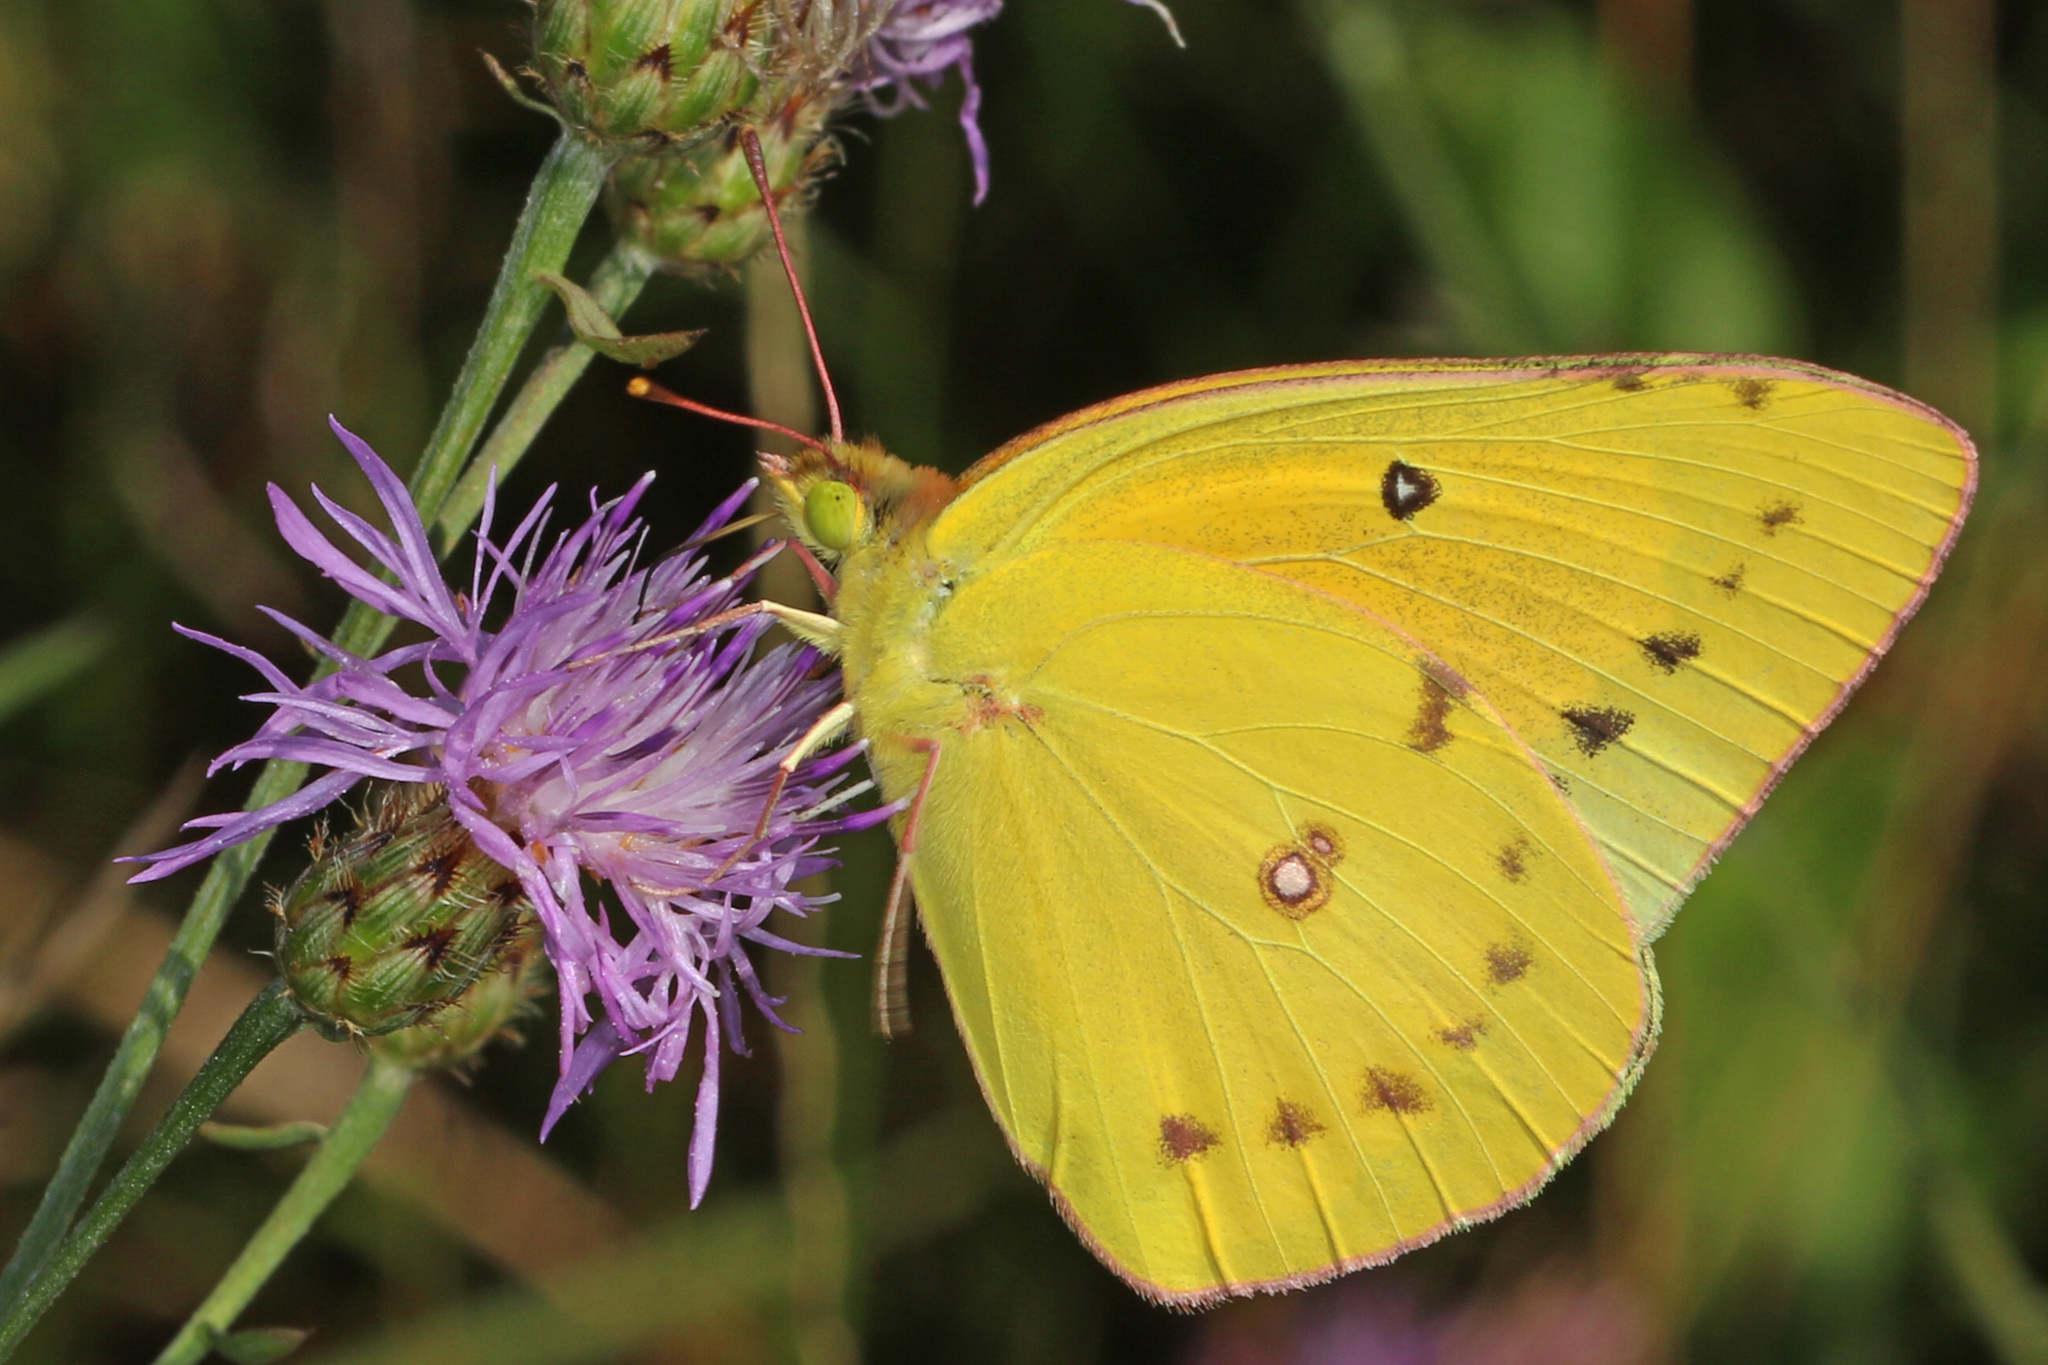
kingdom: Animalia
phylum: Arthropoda
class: Insecta
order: Lepidoptera
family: Pieridae
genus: Colias
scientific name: Colias eurytheme
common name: Alfalfa butterfly
